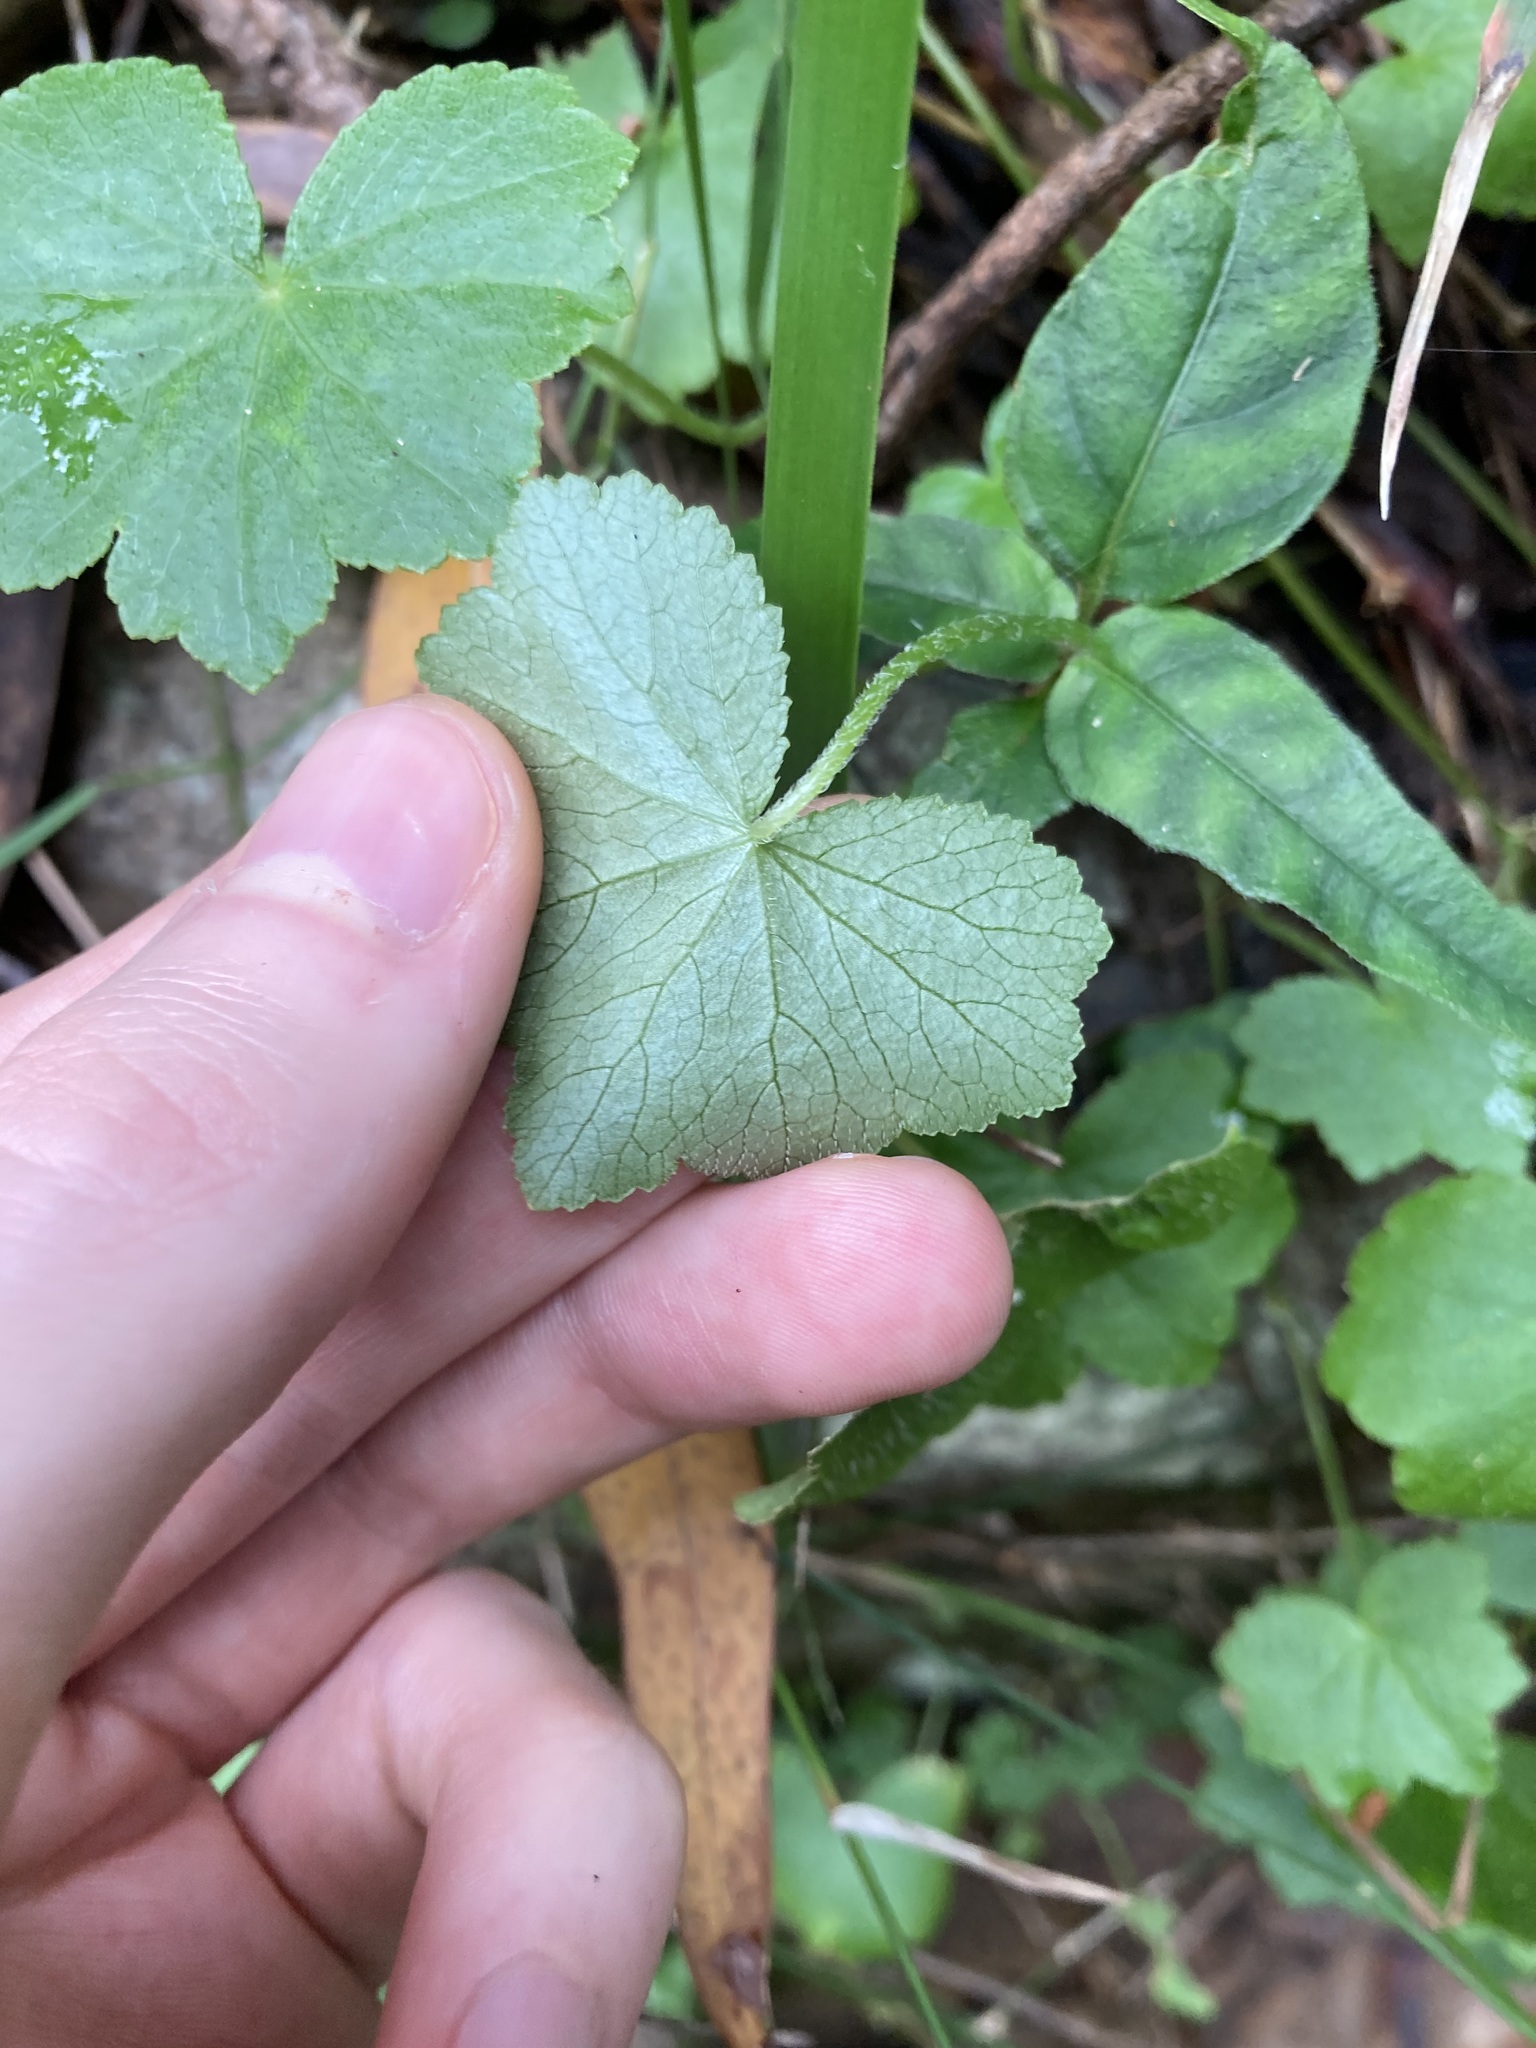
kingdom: Plantae
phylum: Tracheophyta
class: Magnoliopsida
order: Apiales
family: Araliaceae
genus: Hydrocotyle
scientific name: Hydrocotyle hirta
